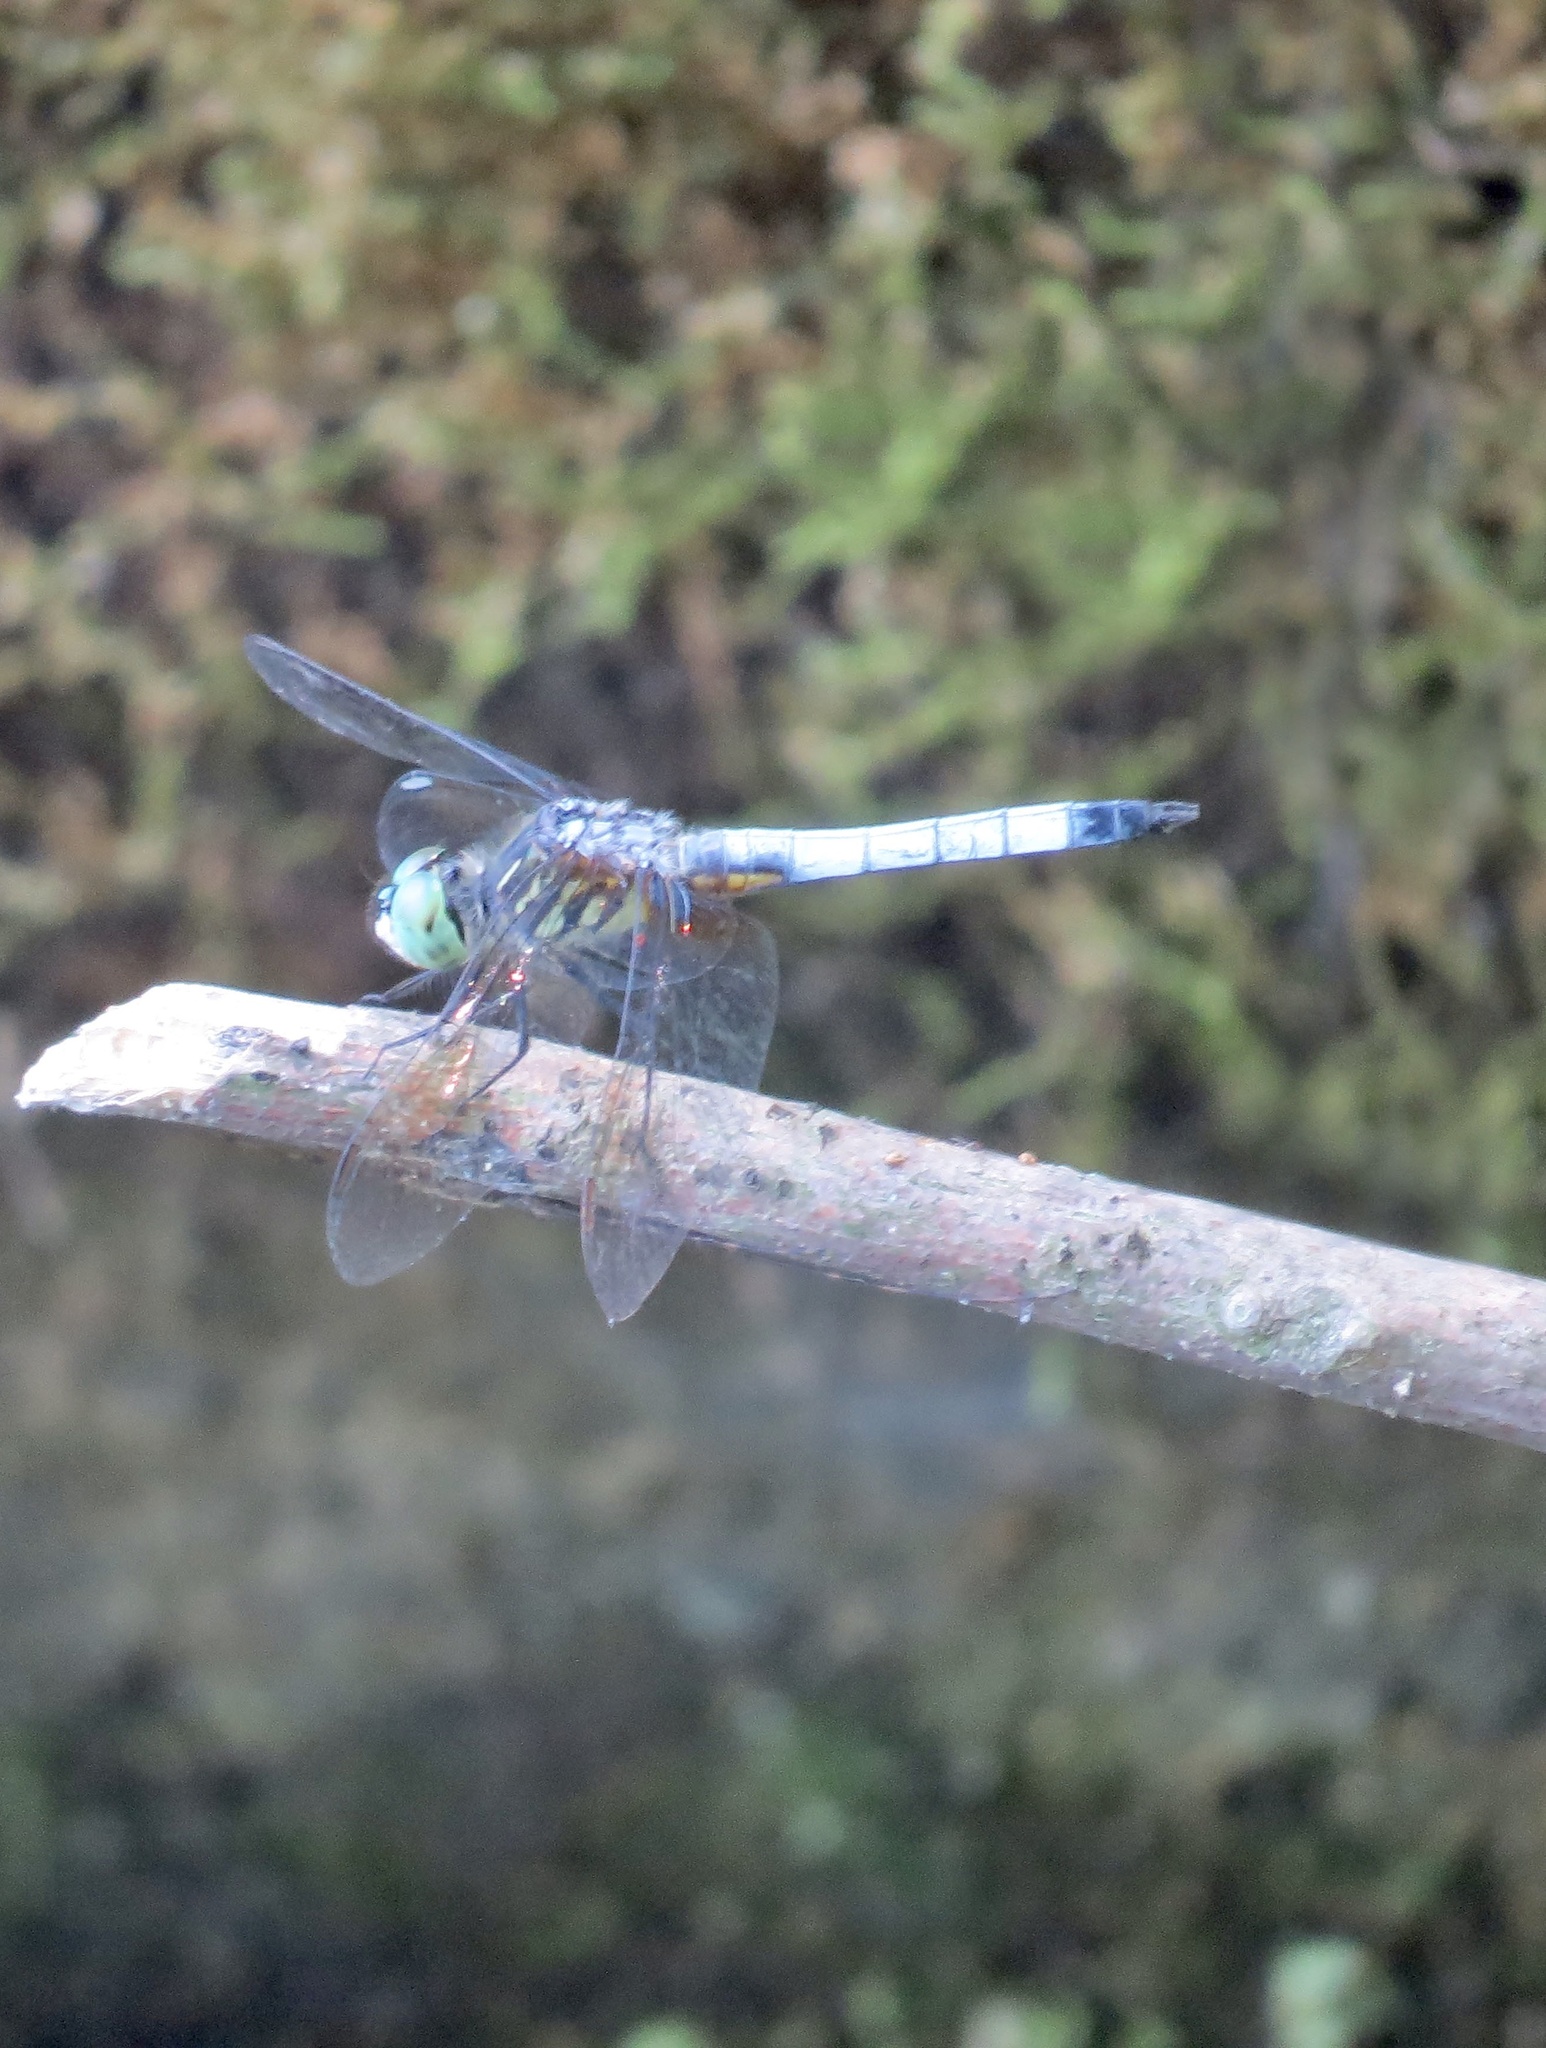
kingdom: Animalia
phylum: Arthropoda
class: Insecta
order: Odonata
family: Libellulidae
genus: Pachydiplax
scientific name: Pachydiplax longipennis
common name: Blue dasher
